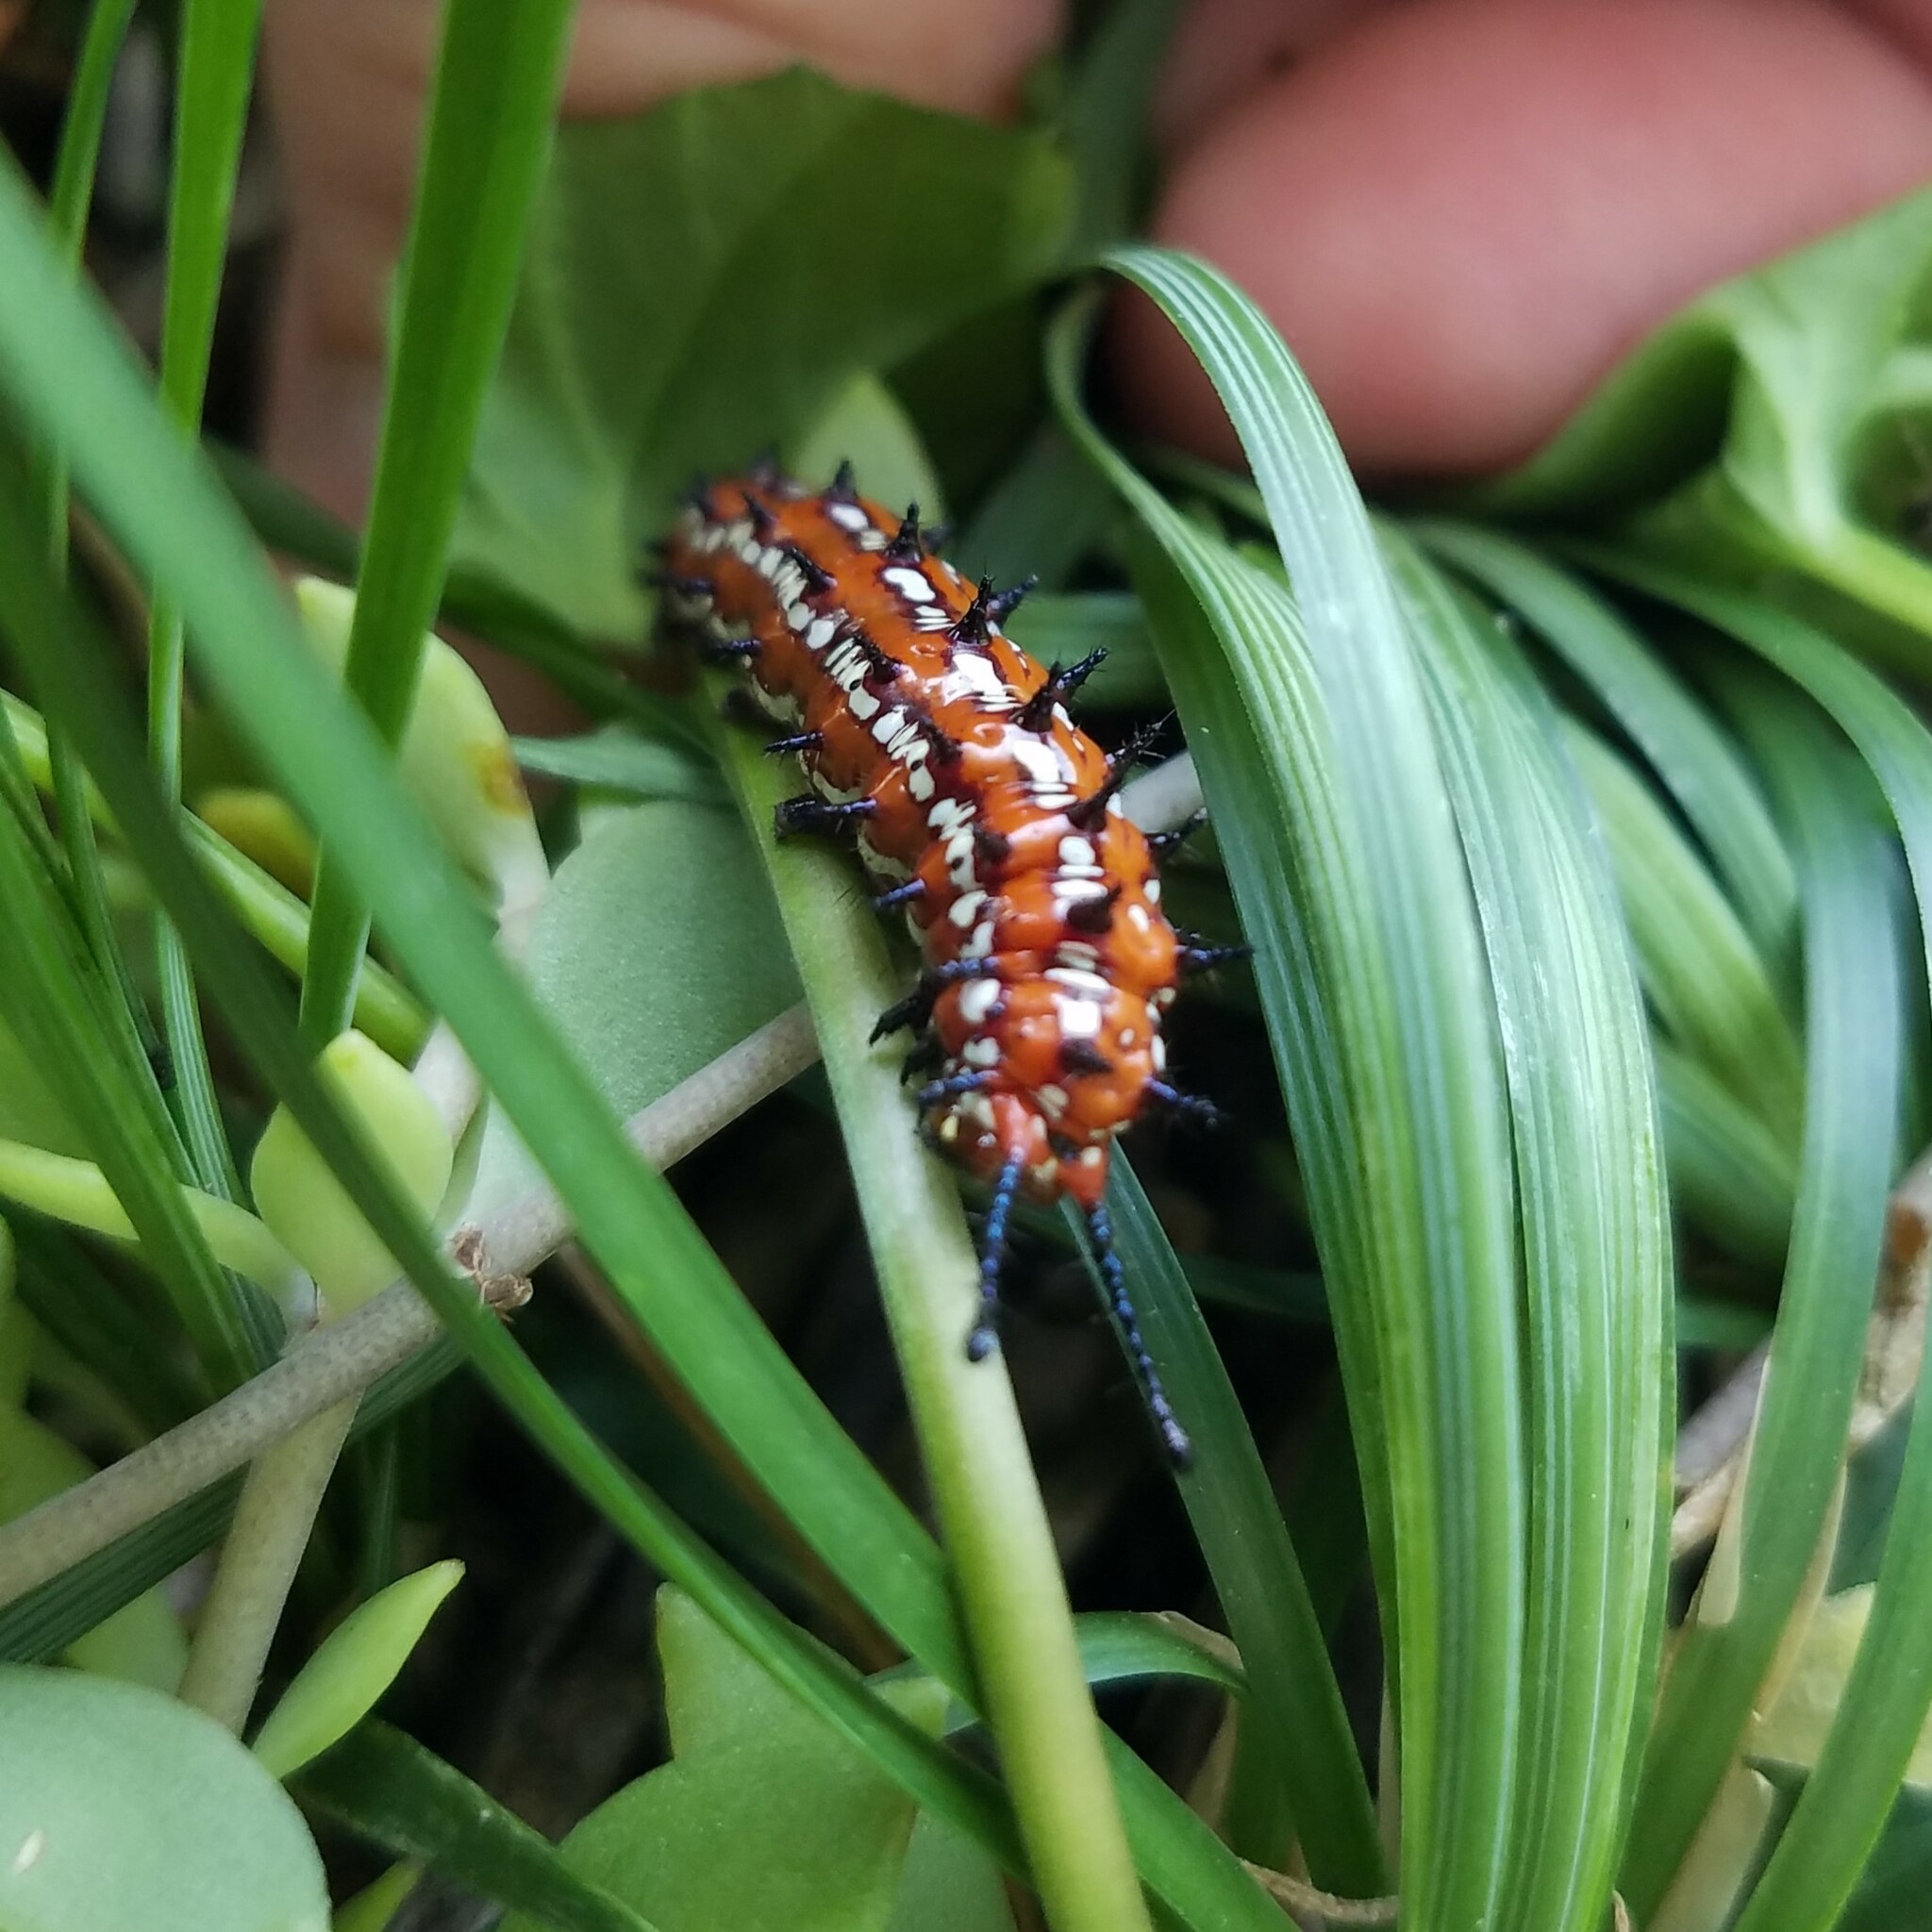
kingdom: Animalia
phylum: Arthropoda
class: Insecta
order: Lepidoptera
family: Nymphalidae
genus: Euptoieta
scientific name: Euptoieta claudia
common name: Variegated fritillary
